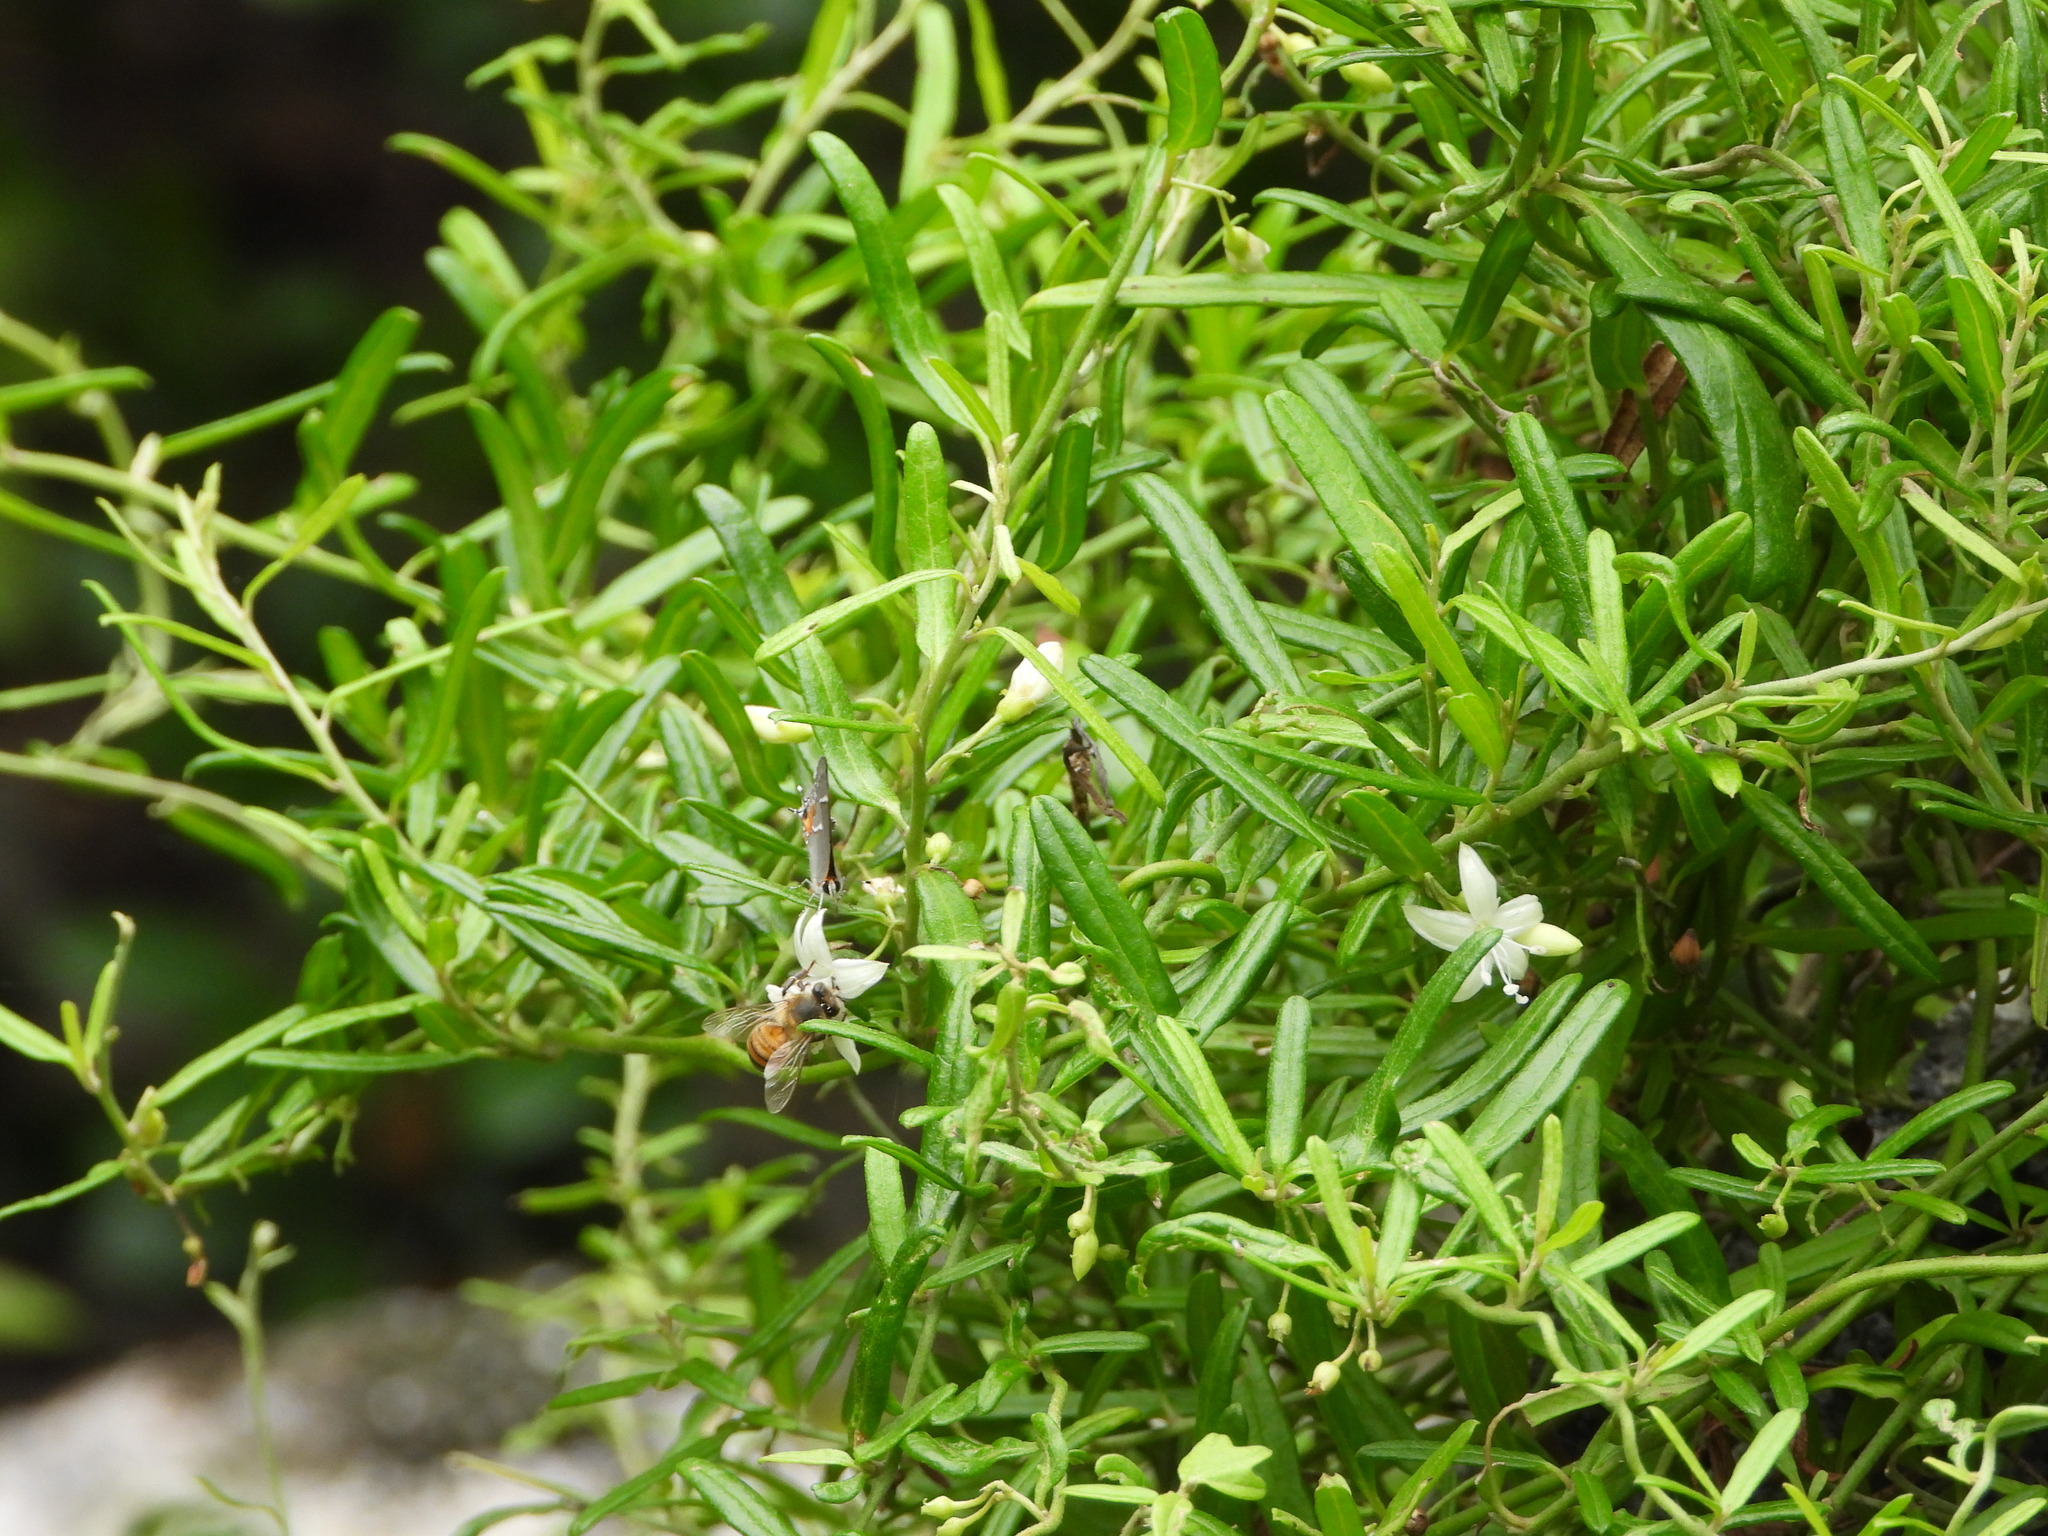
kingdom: Plantae
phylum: Tracheophyta
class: Magnoliopsida
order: Solanales
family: Convolvulaceae
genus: Jacquemontia
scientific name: Jacquemontia havanensis
